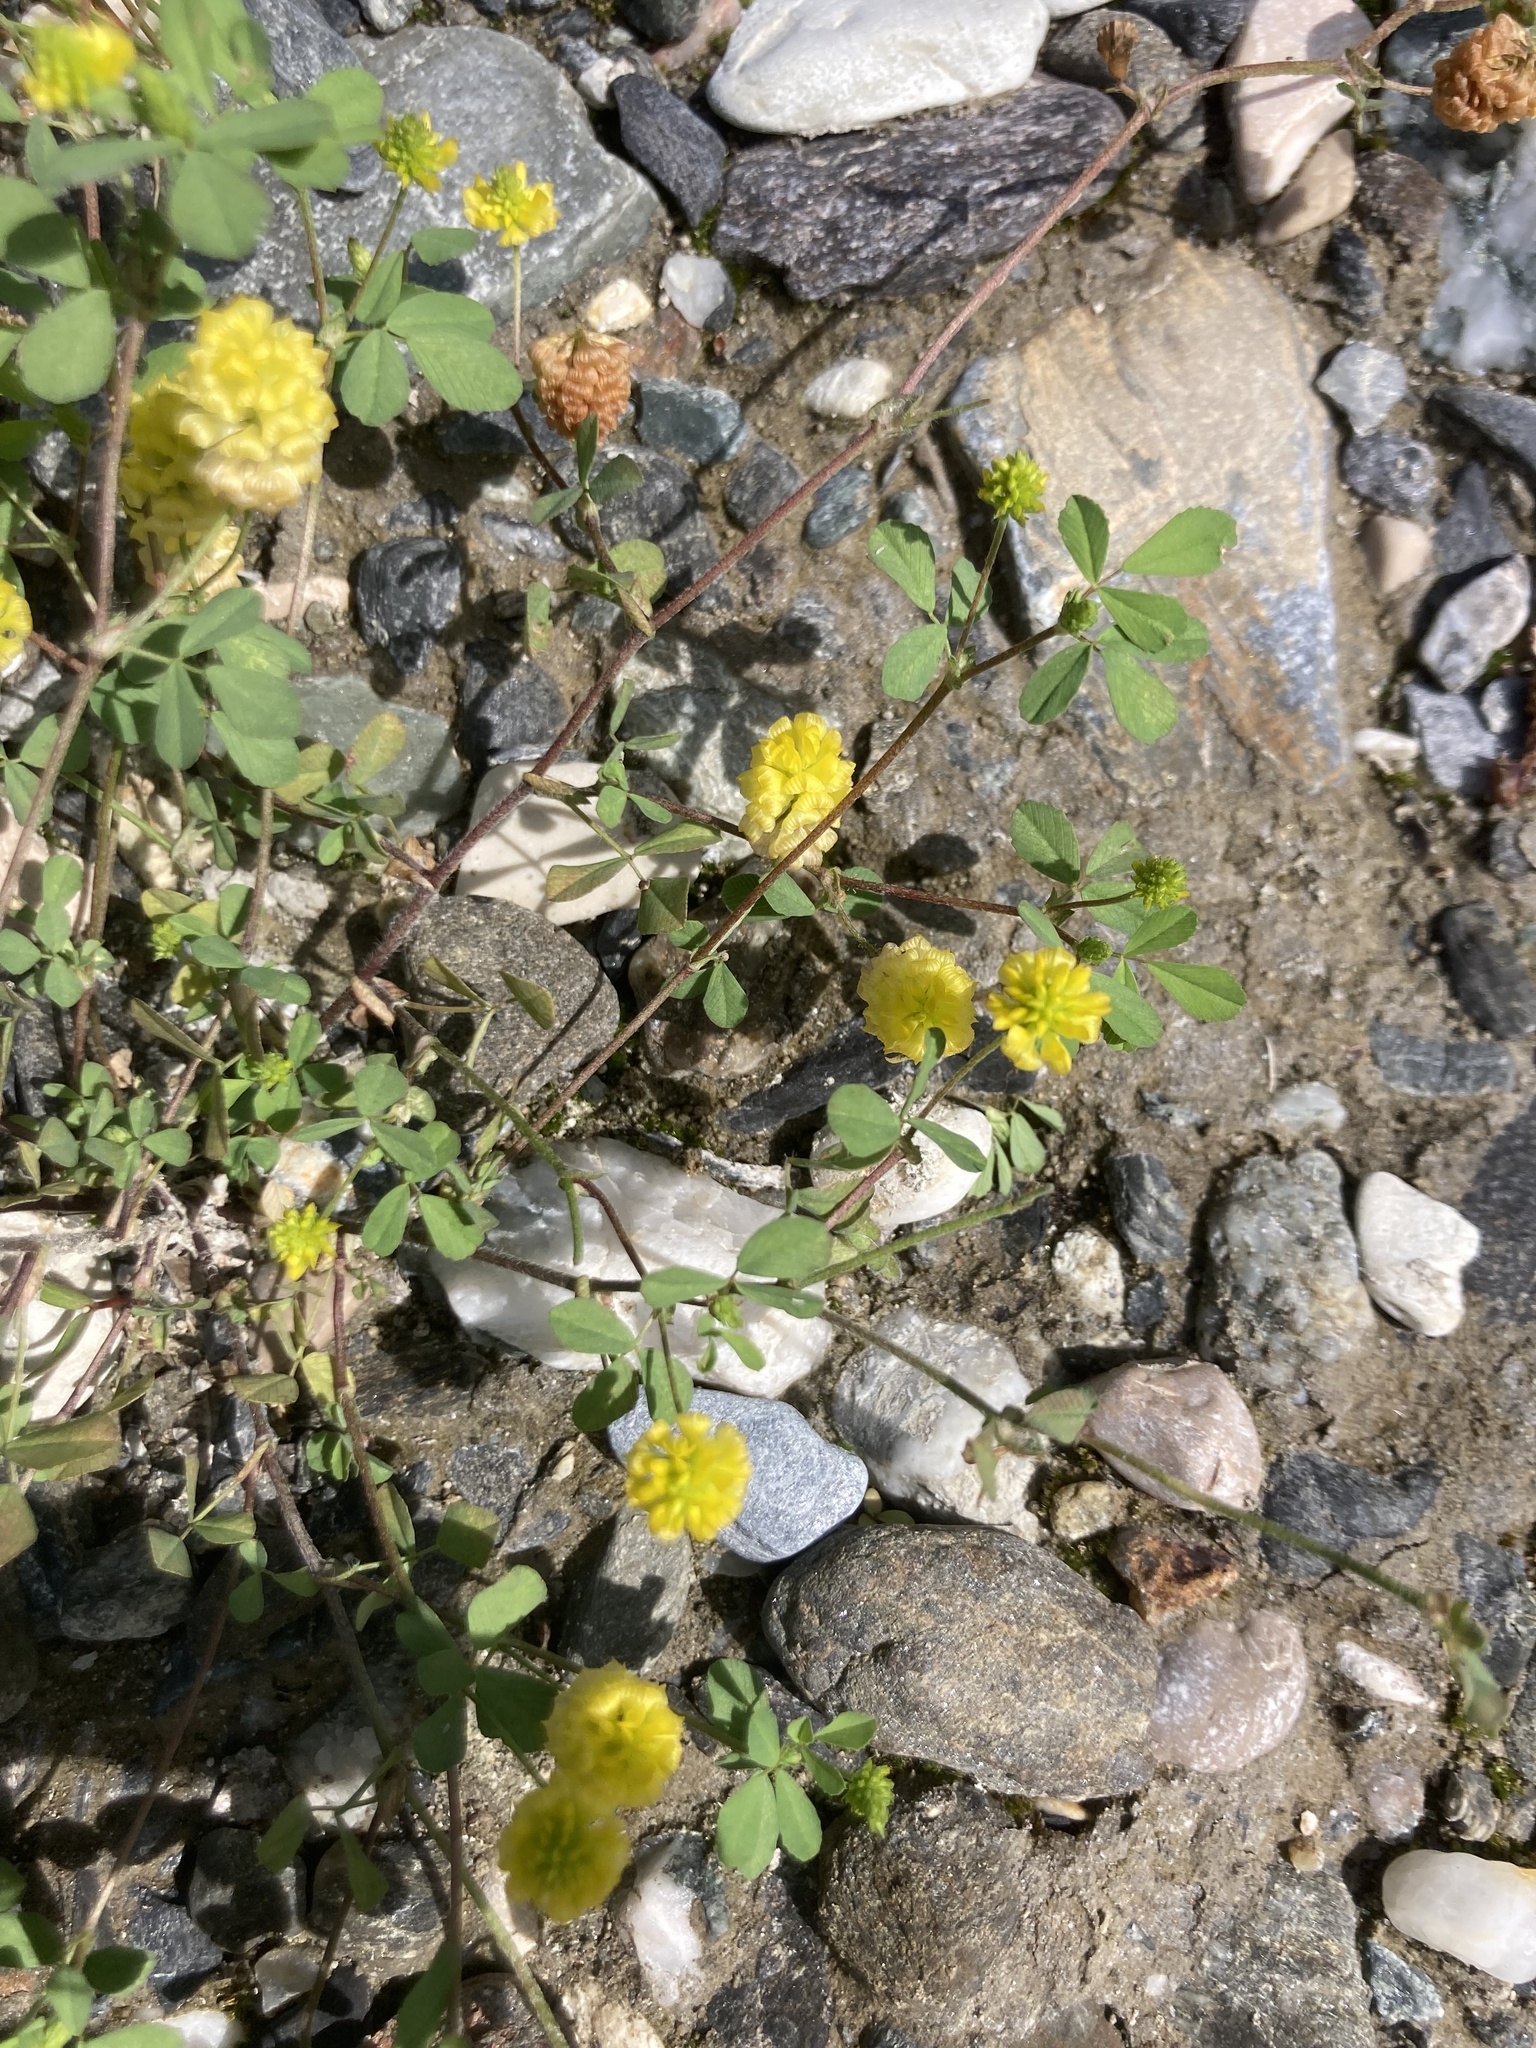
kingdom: Plantae
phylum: Tracheophyta
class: Magnoliopsida
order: Fabales
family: Fabaceae
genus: Trifolium
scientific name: Trifolium campestre
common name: Field clover
